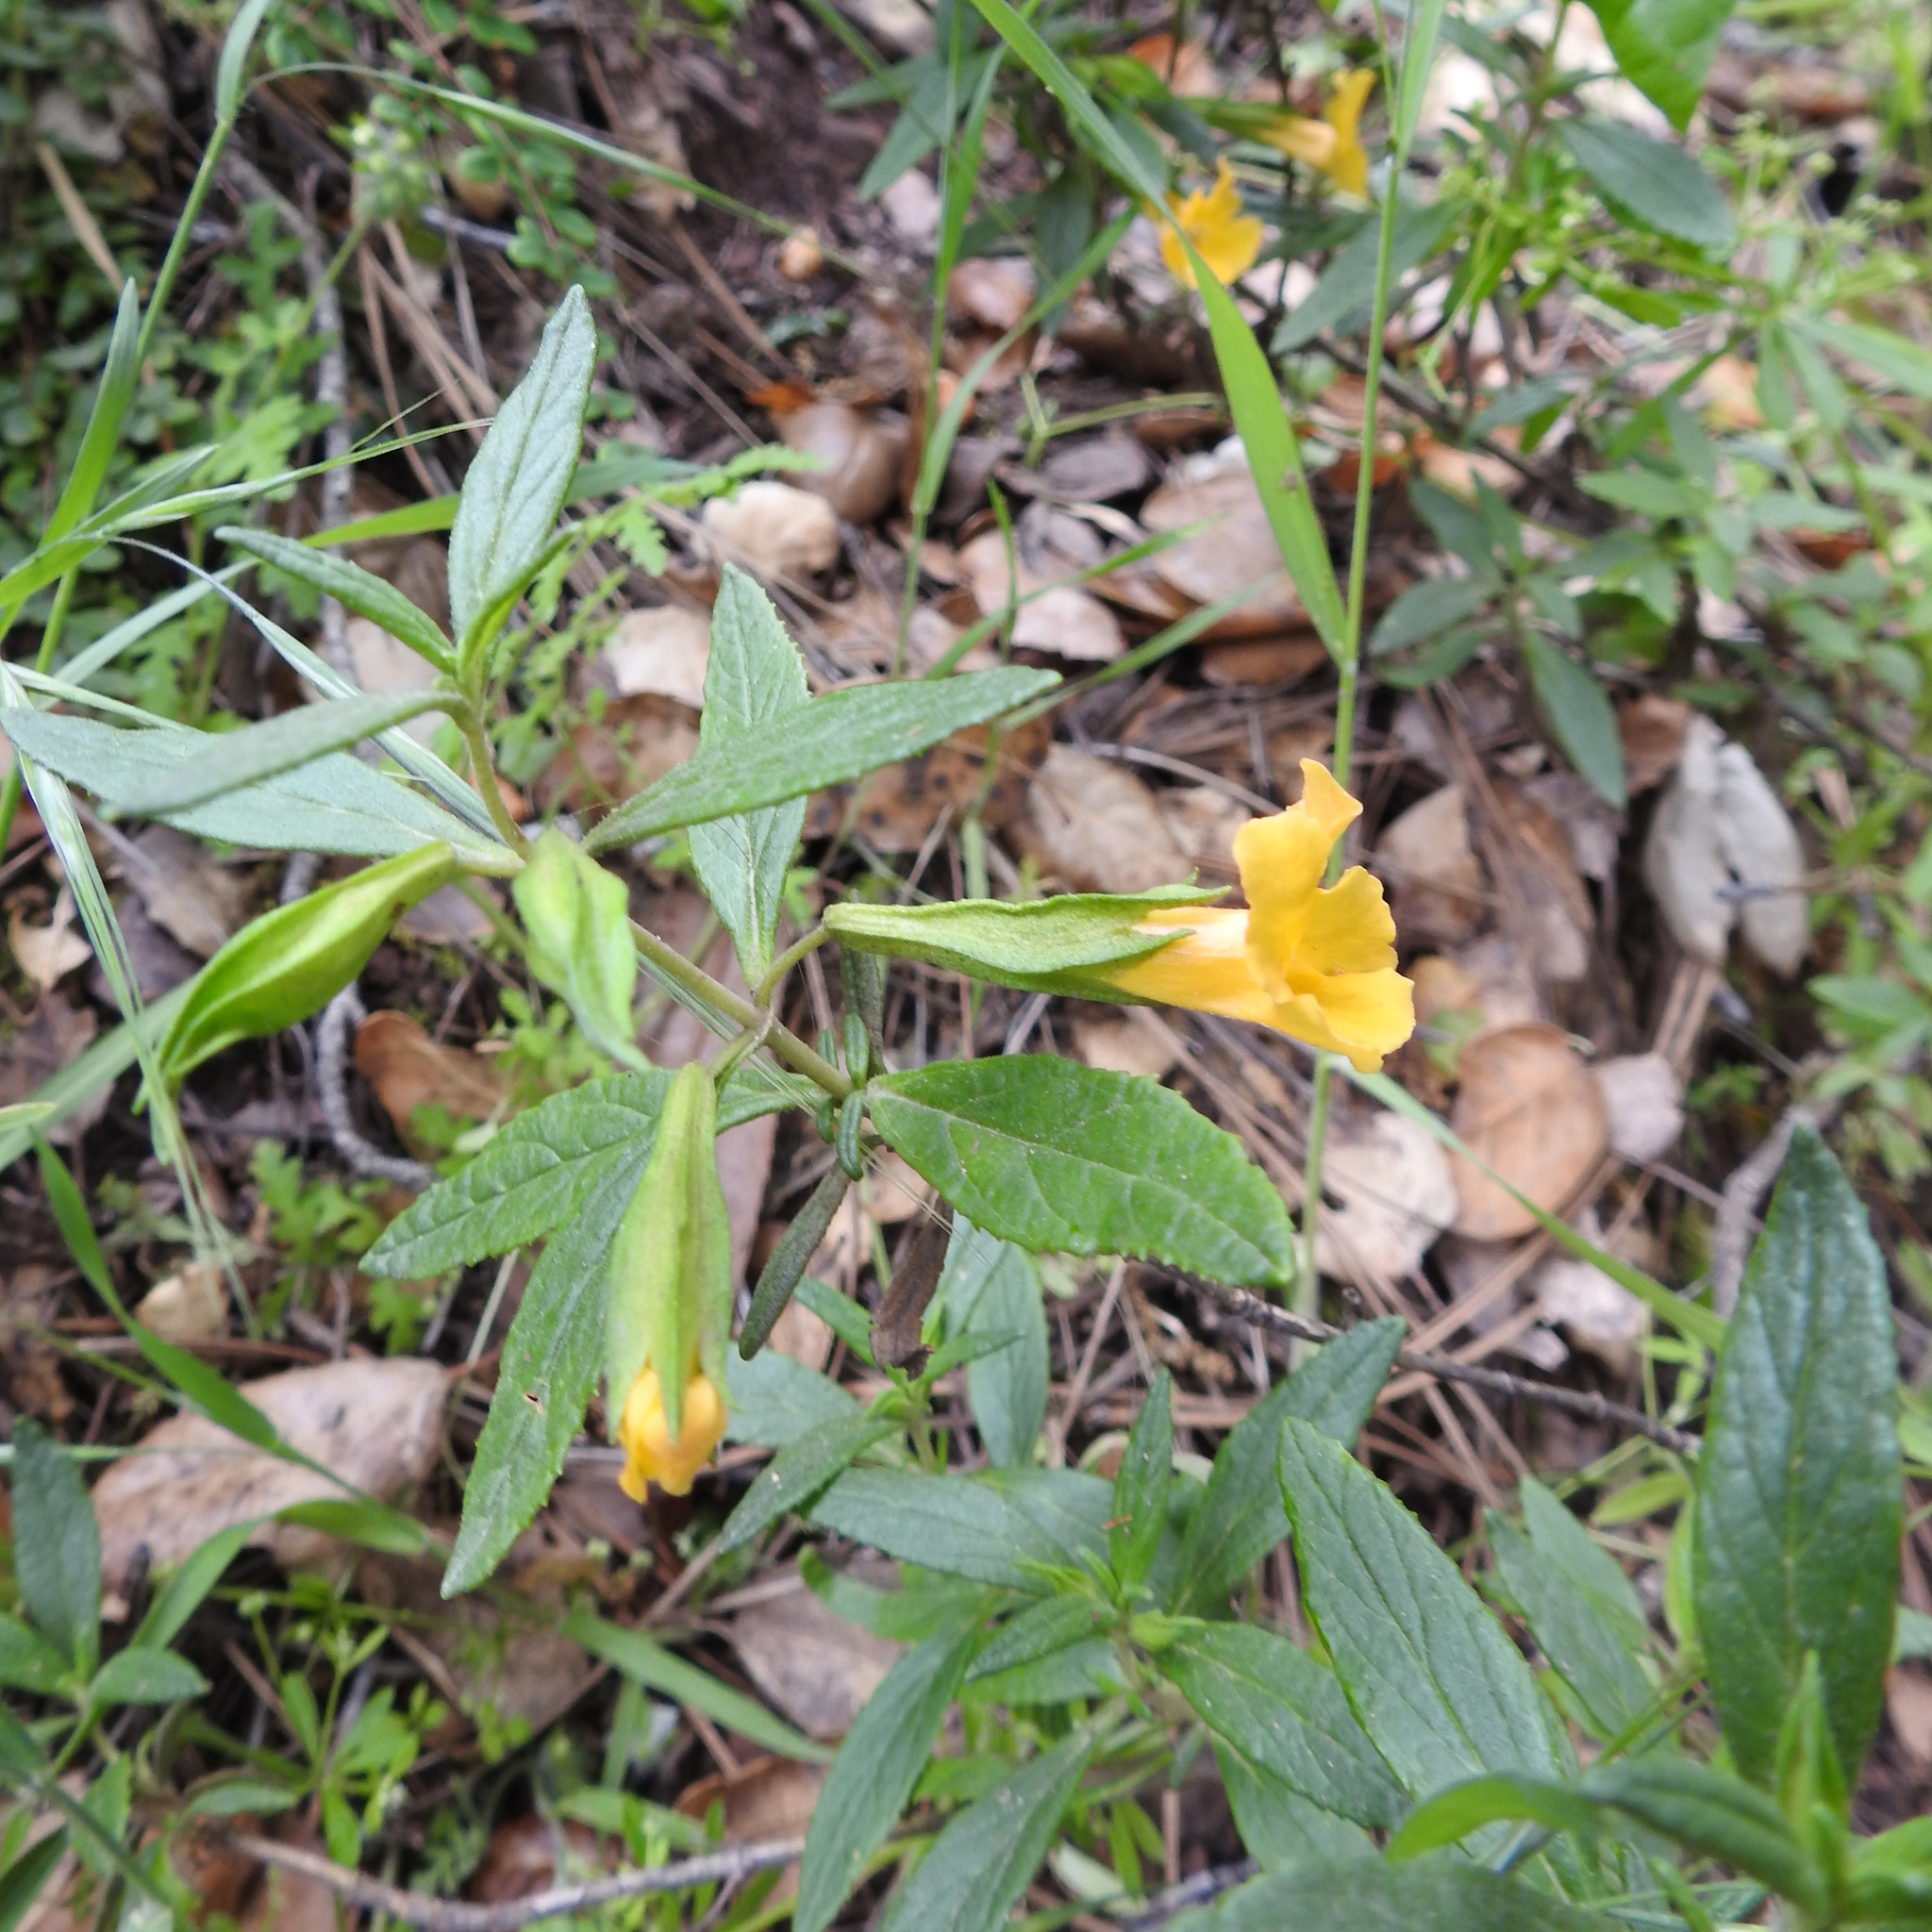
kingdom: Plantae
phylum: Tracheophyta
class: Magnoliopsida
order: Lamiales
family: Phrymaceae
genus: Diplacus
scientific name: Diplacus aurantiacus
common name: Bush monkey-flower
